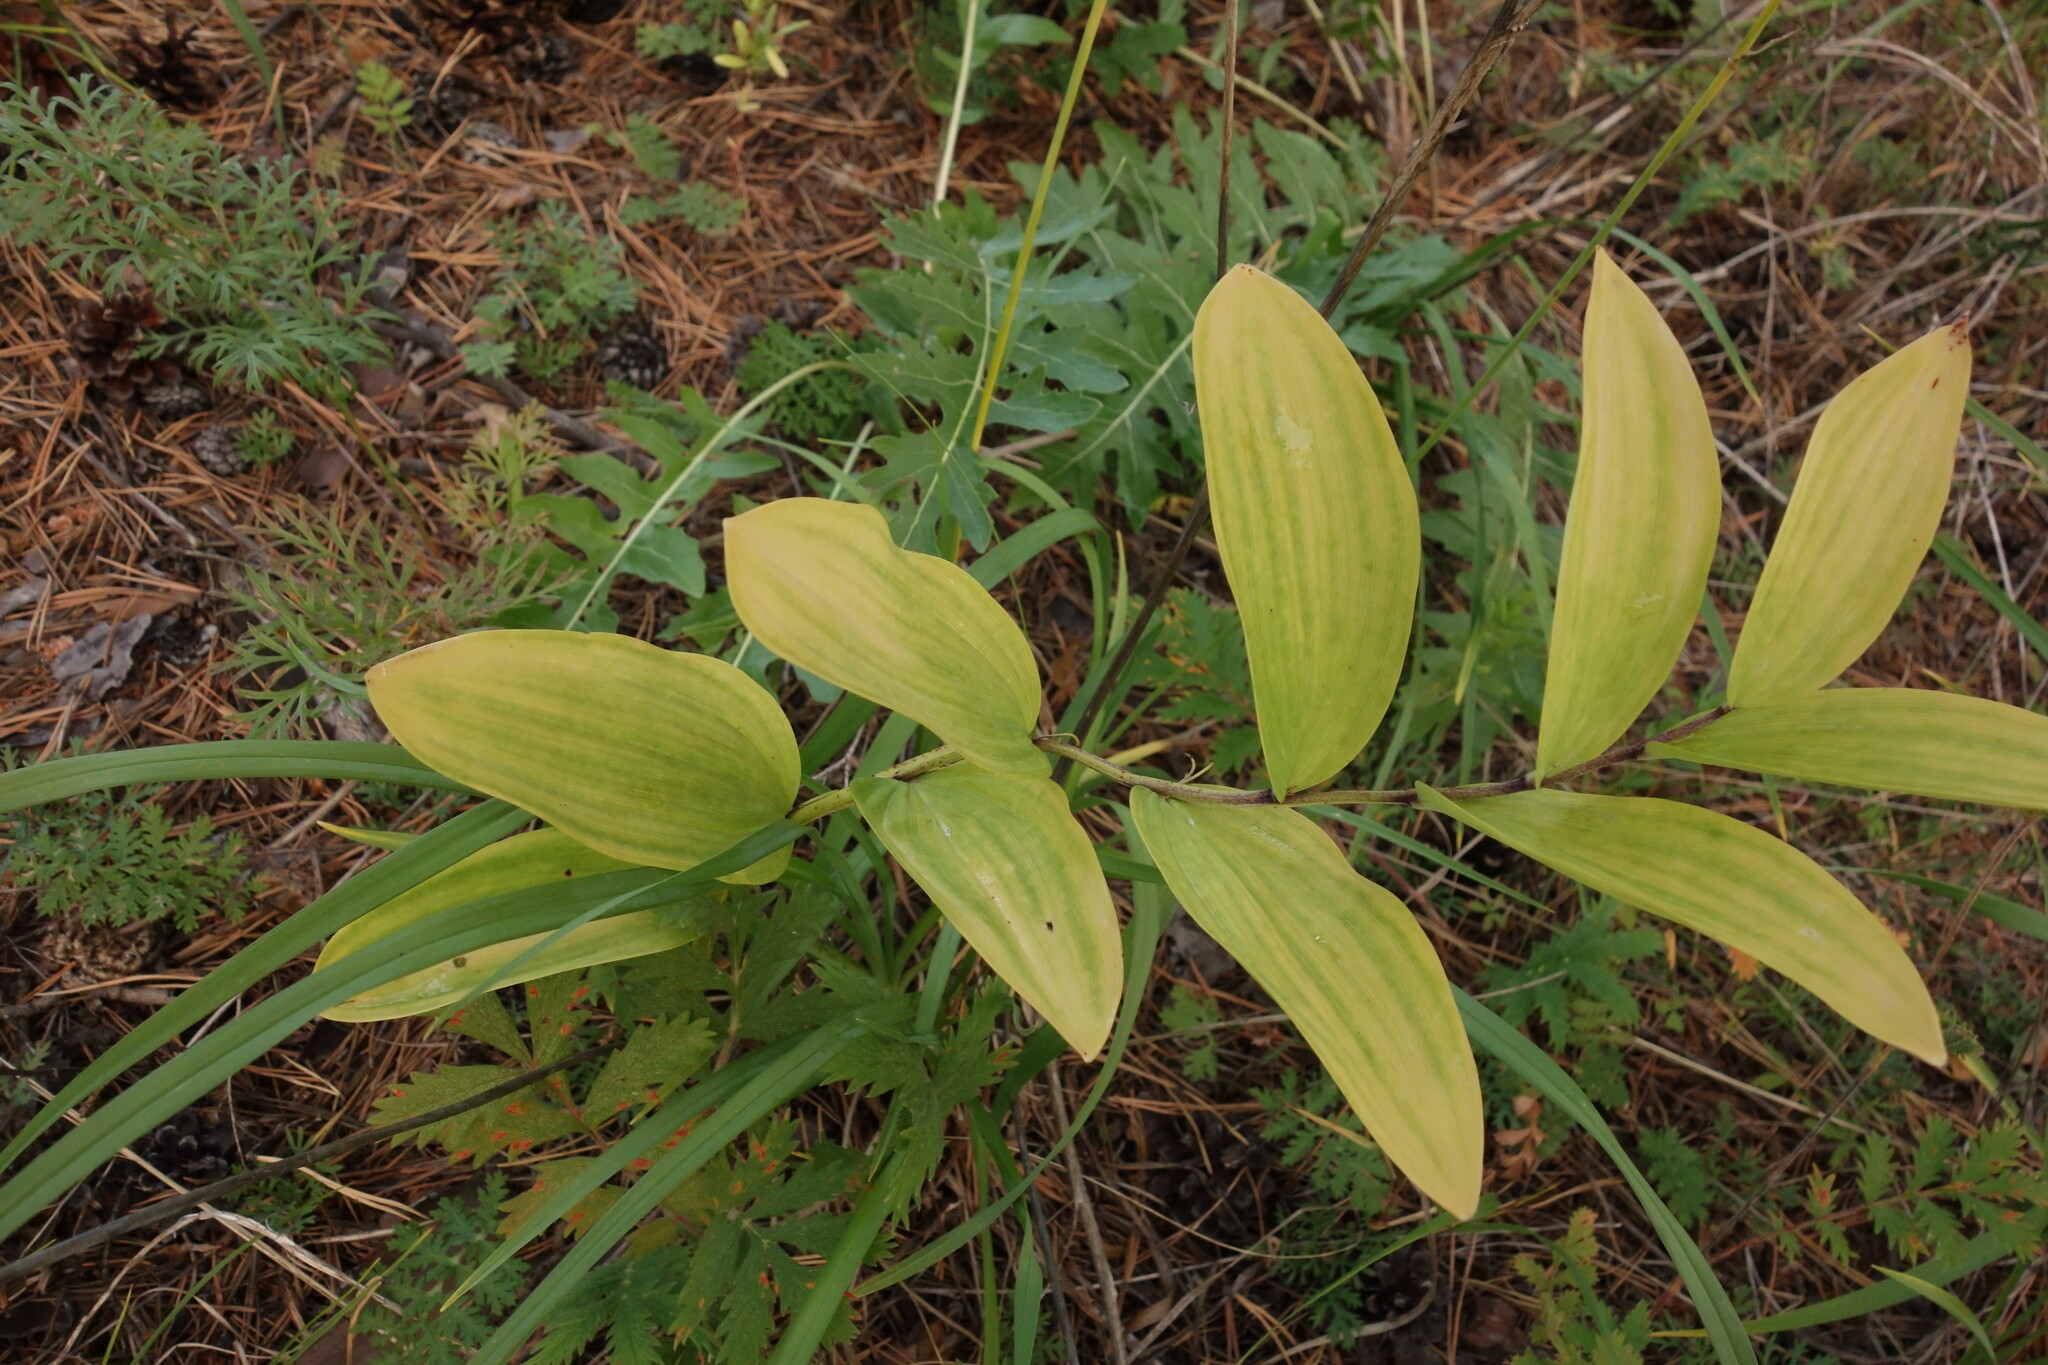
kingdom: Plantae
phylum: Tracheophyta
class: Liliopsida
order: Asparagales
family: Asparagaceae
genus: Polygonatum
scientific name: Polygonatum odoratum
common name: Angular solomon's-seal
